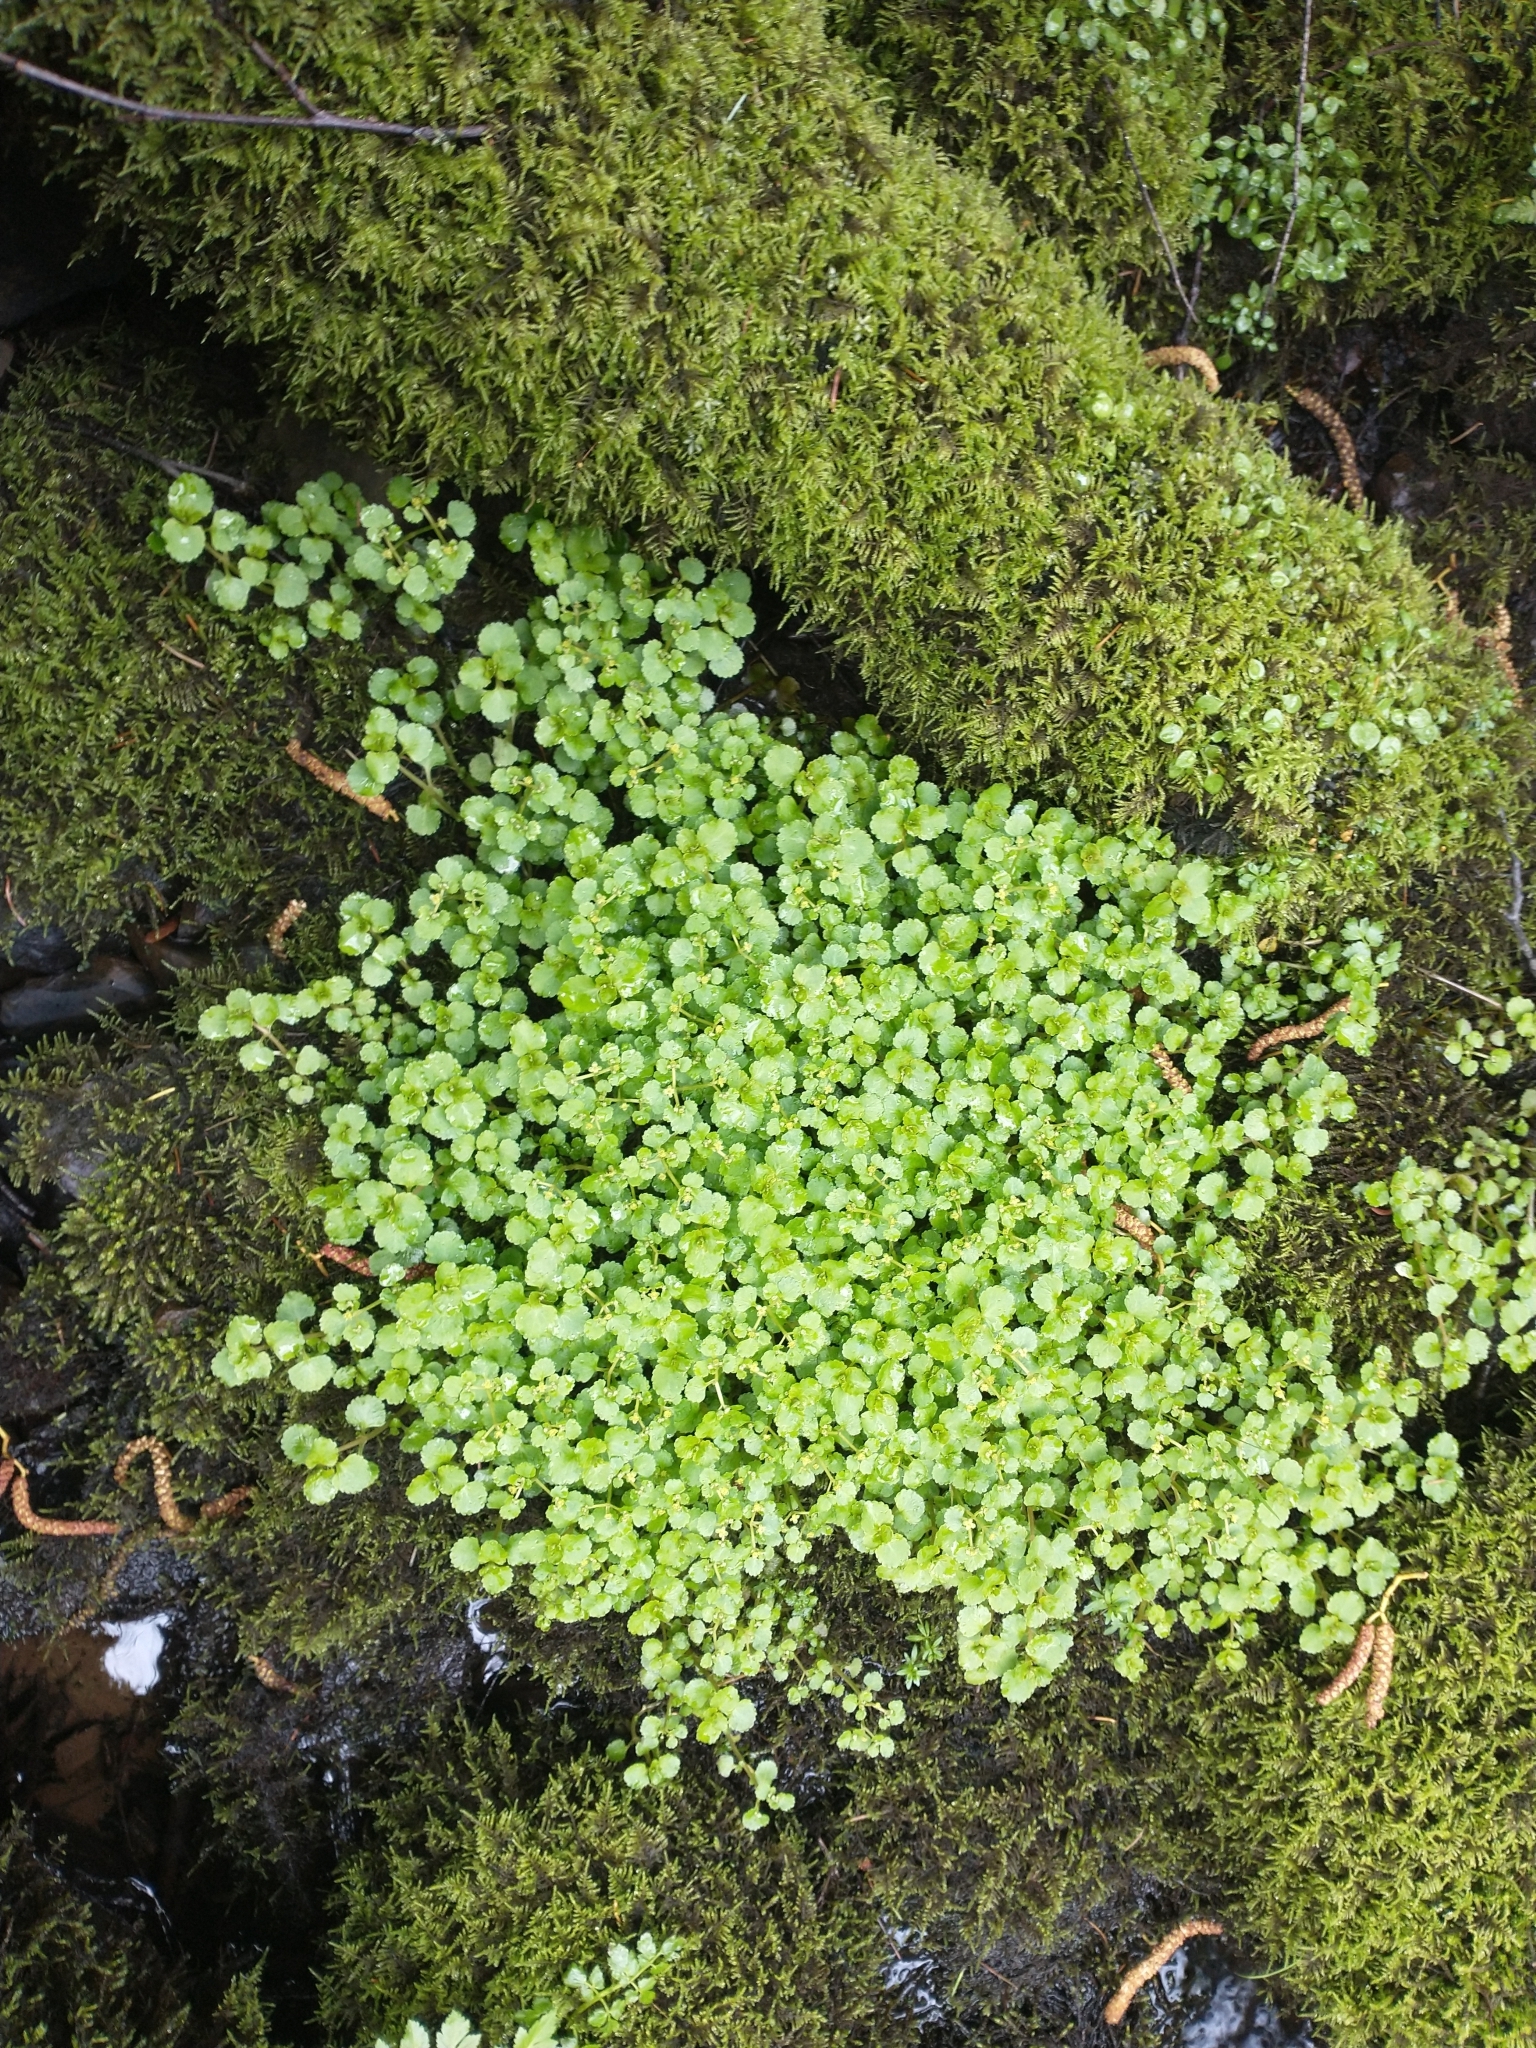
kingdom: Plantae
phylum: Tracheophyta
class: Magnoliopsida
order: Saxifragales
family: Saxifragaceae
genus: Chrysosplenium
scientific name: Chrysosplenium glechomifolium
